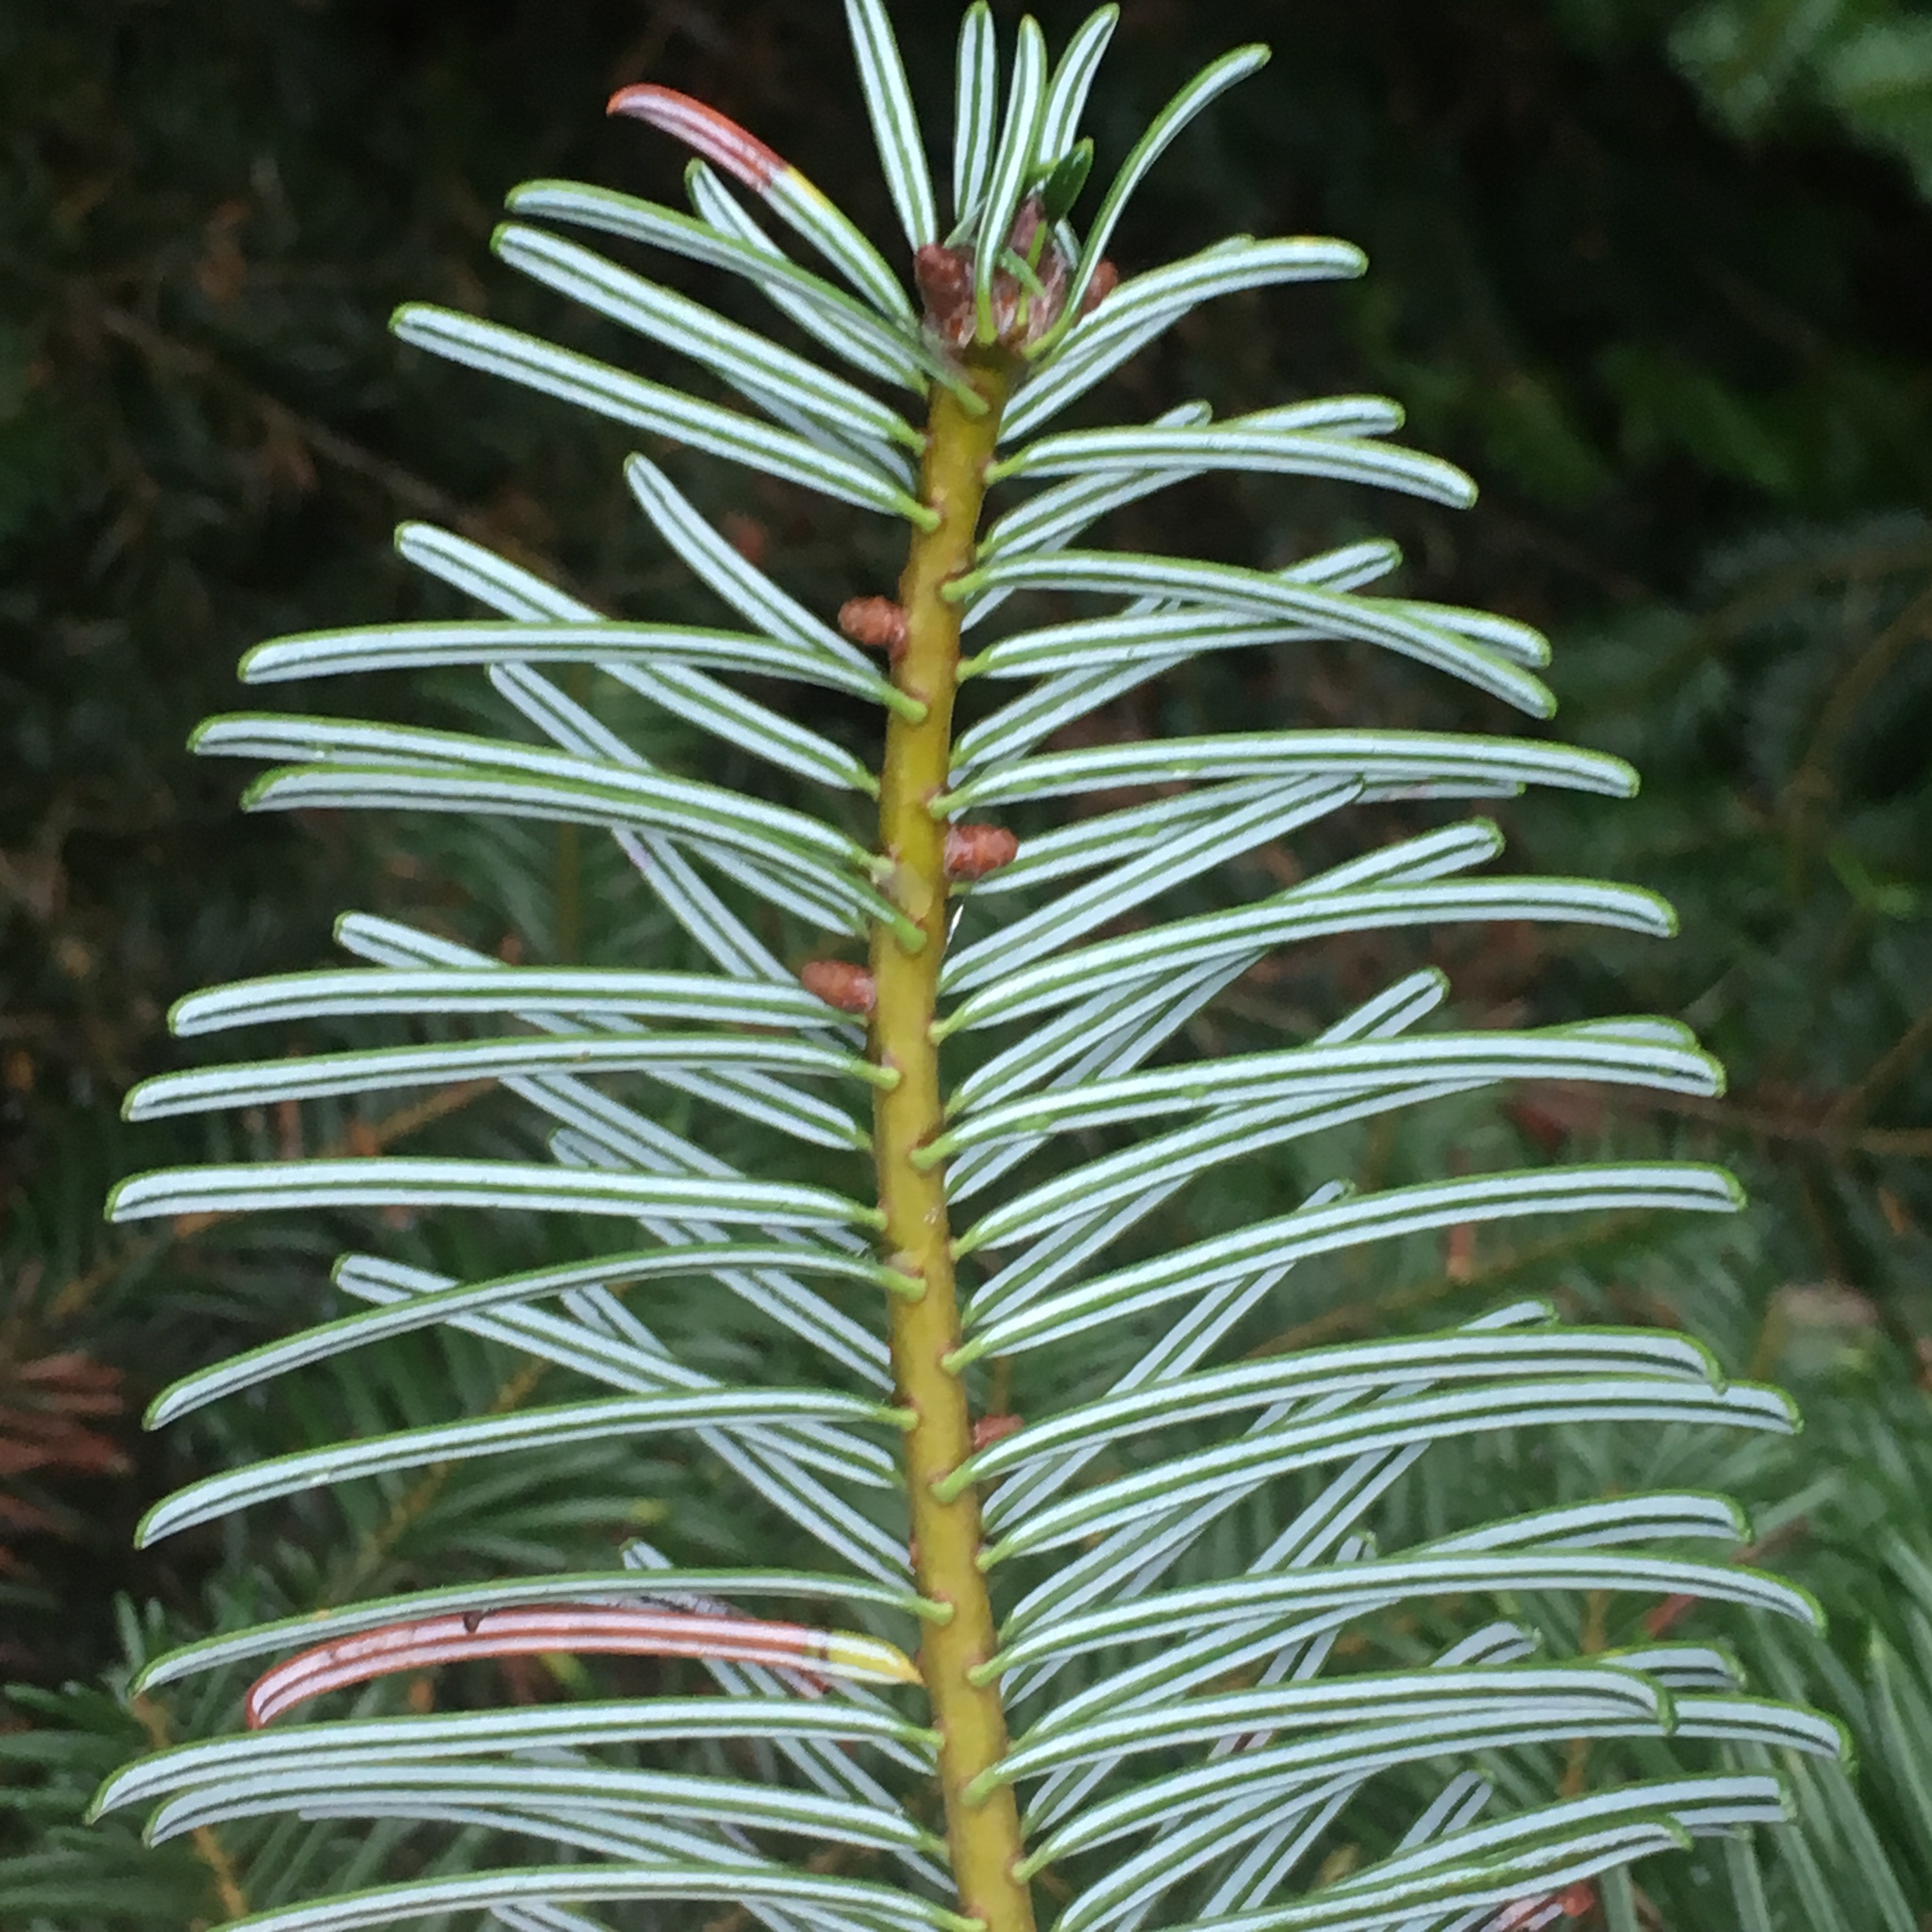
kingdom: Plantae
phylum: Tracheophyta
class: Pinopsida
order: Pinales
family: Pinaceae
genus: Abies
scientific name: Abies grandis
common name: Giant fir
